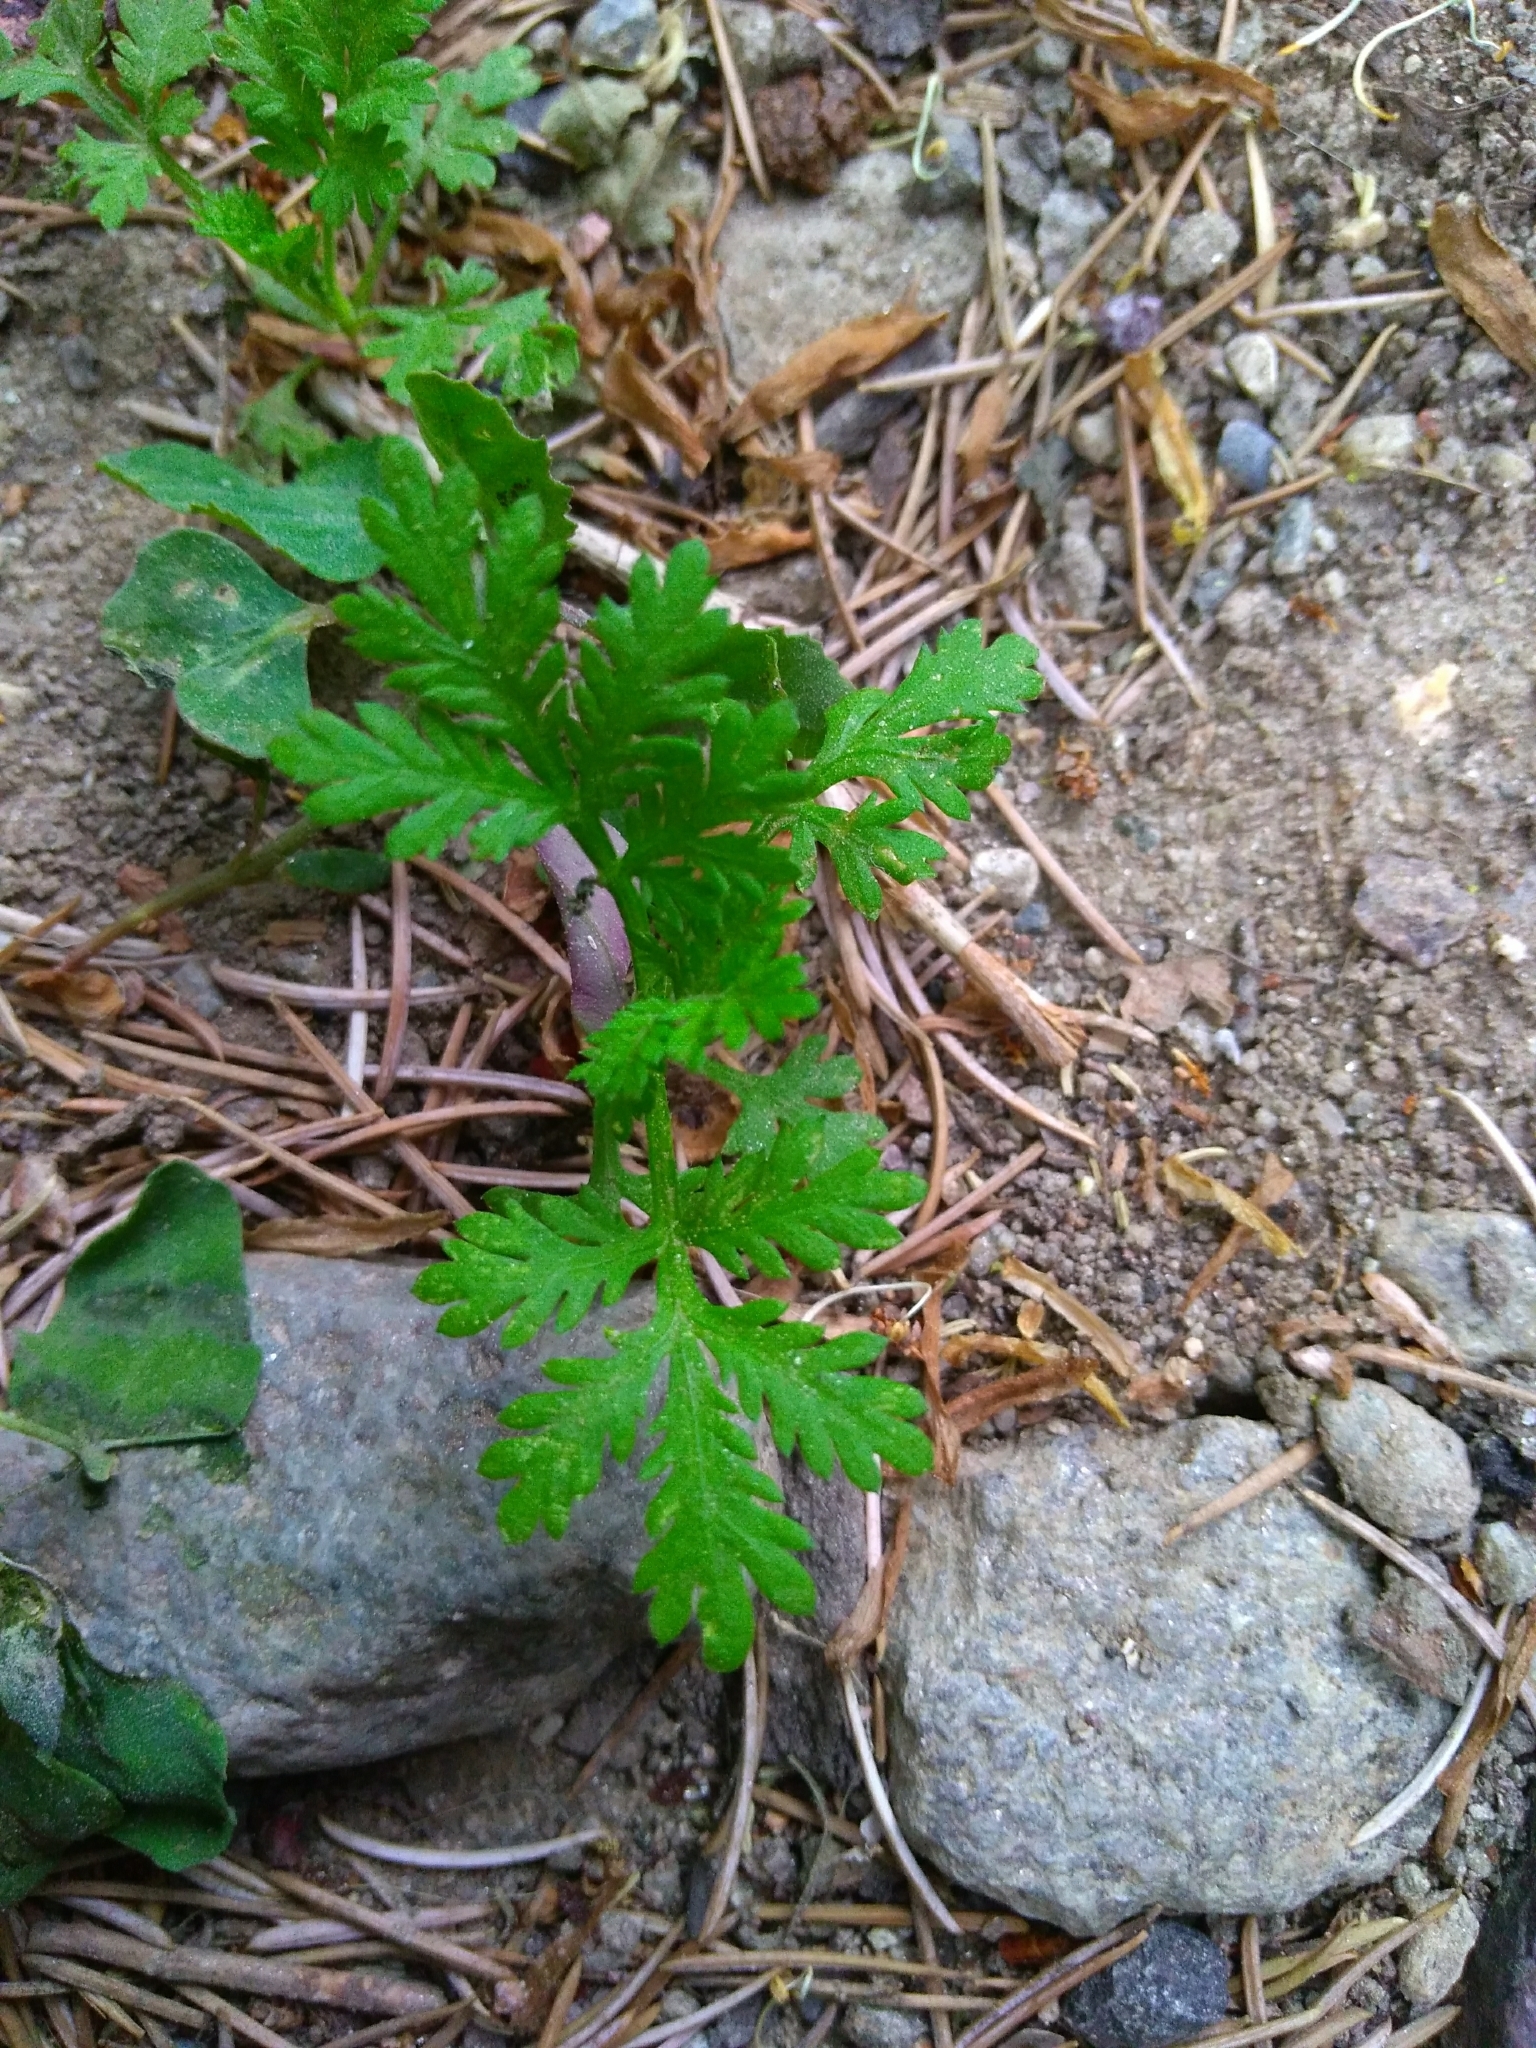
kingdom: Plantae
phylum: Tracheophyta
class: Magnoliopsida
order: Asterales
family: Asteraceae
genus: Artemisia
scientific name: Artemisia annua
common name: Sweet sagewort
